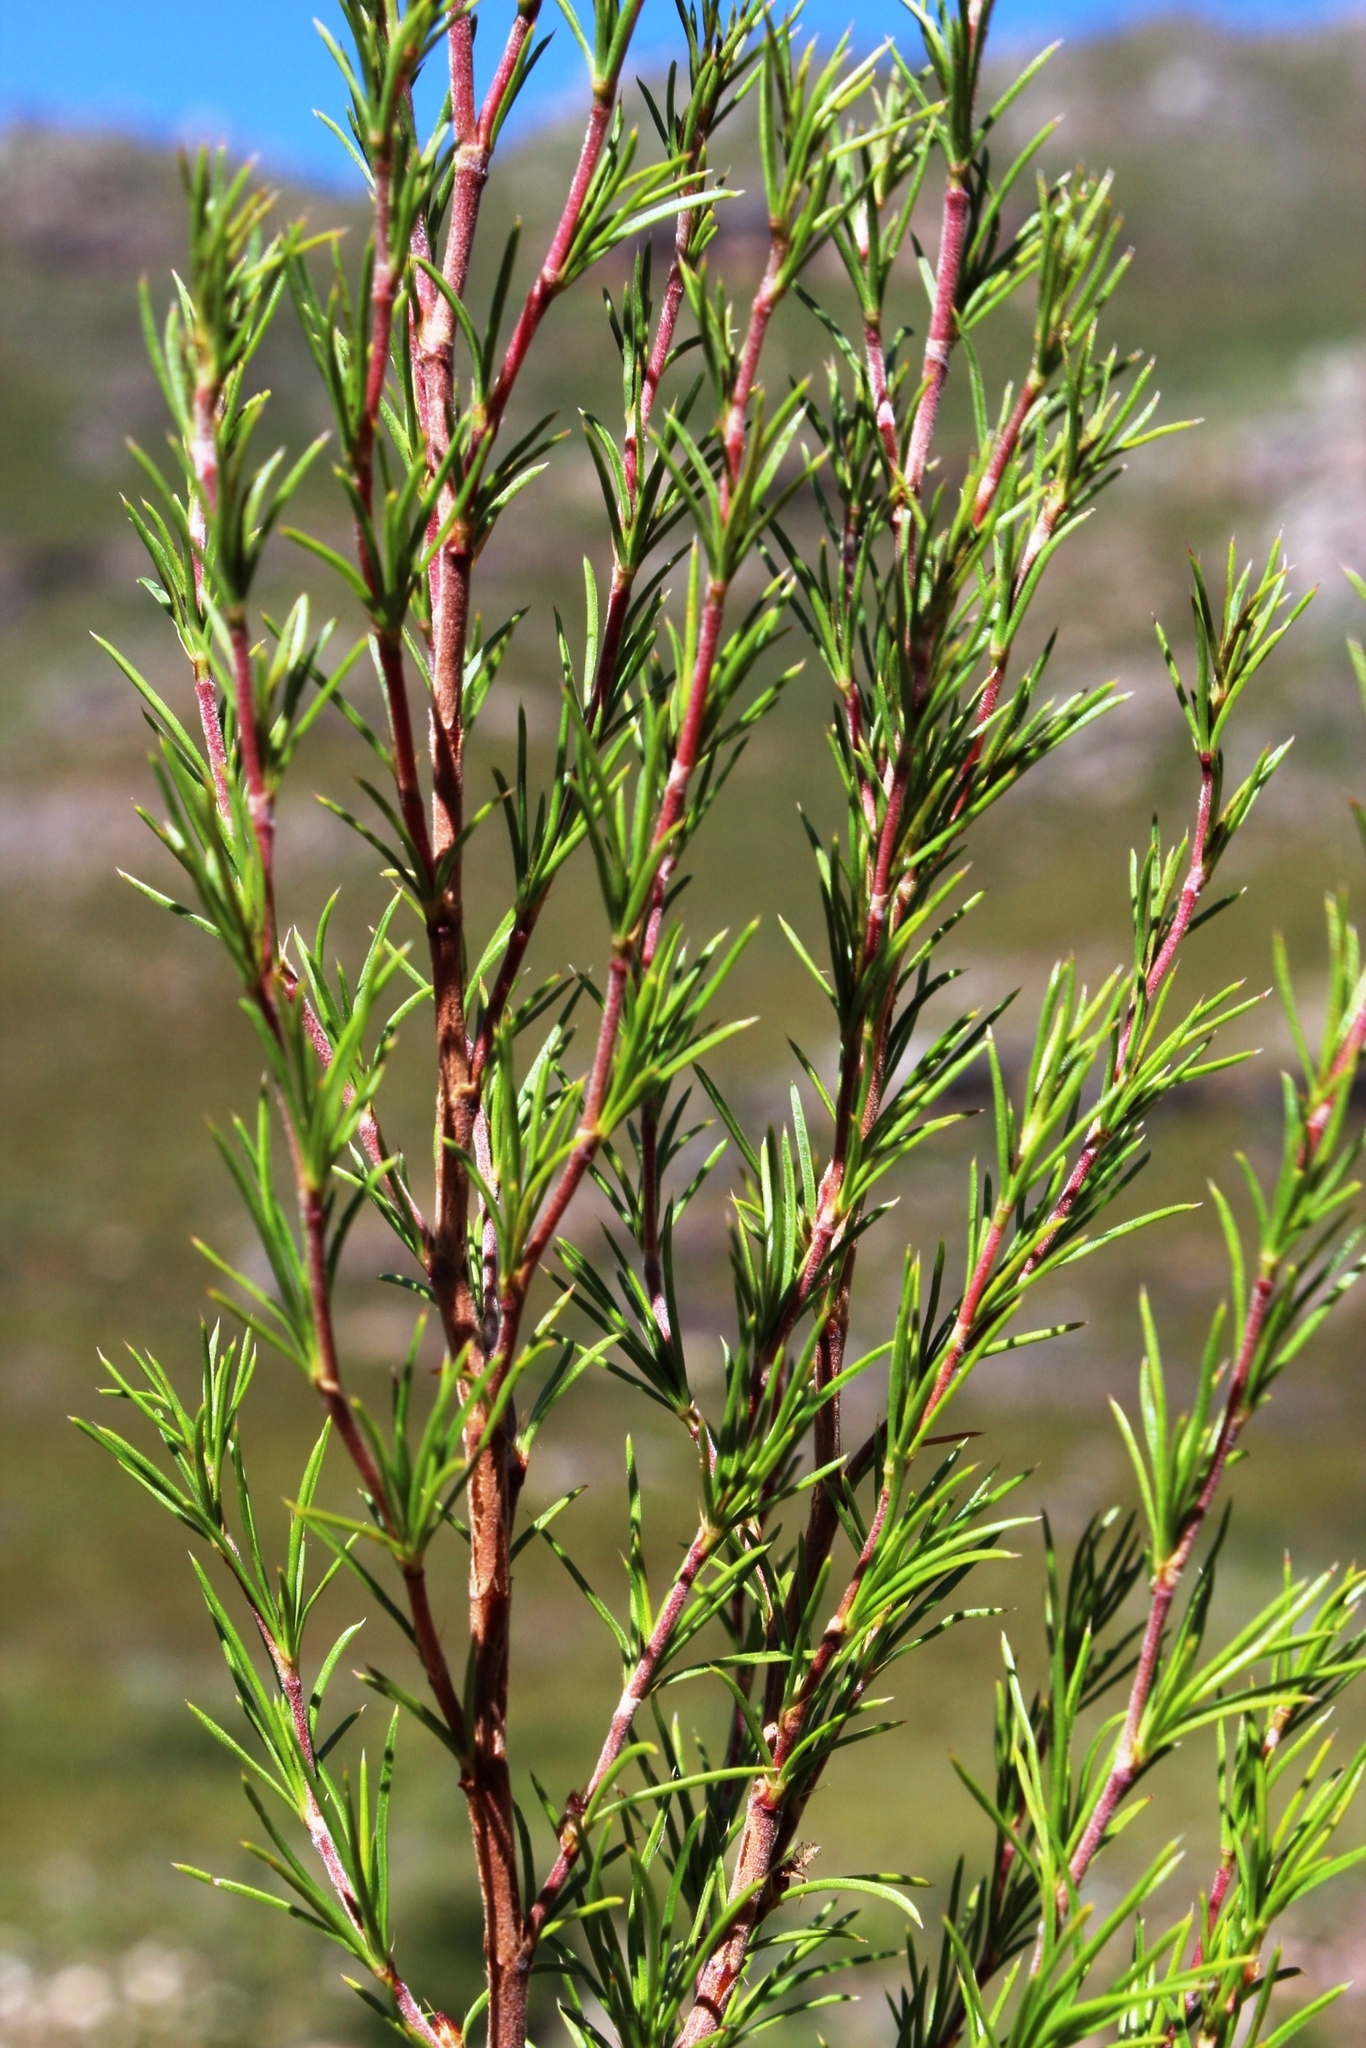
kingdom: Plantae
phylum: Tracheophyta
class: Magnoliopsida
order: Rosales
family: Rosaceae
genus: Cliffortia
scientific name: Cliffortia atrata
